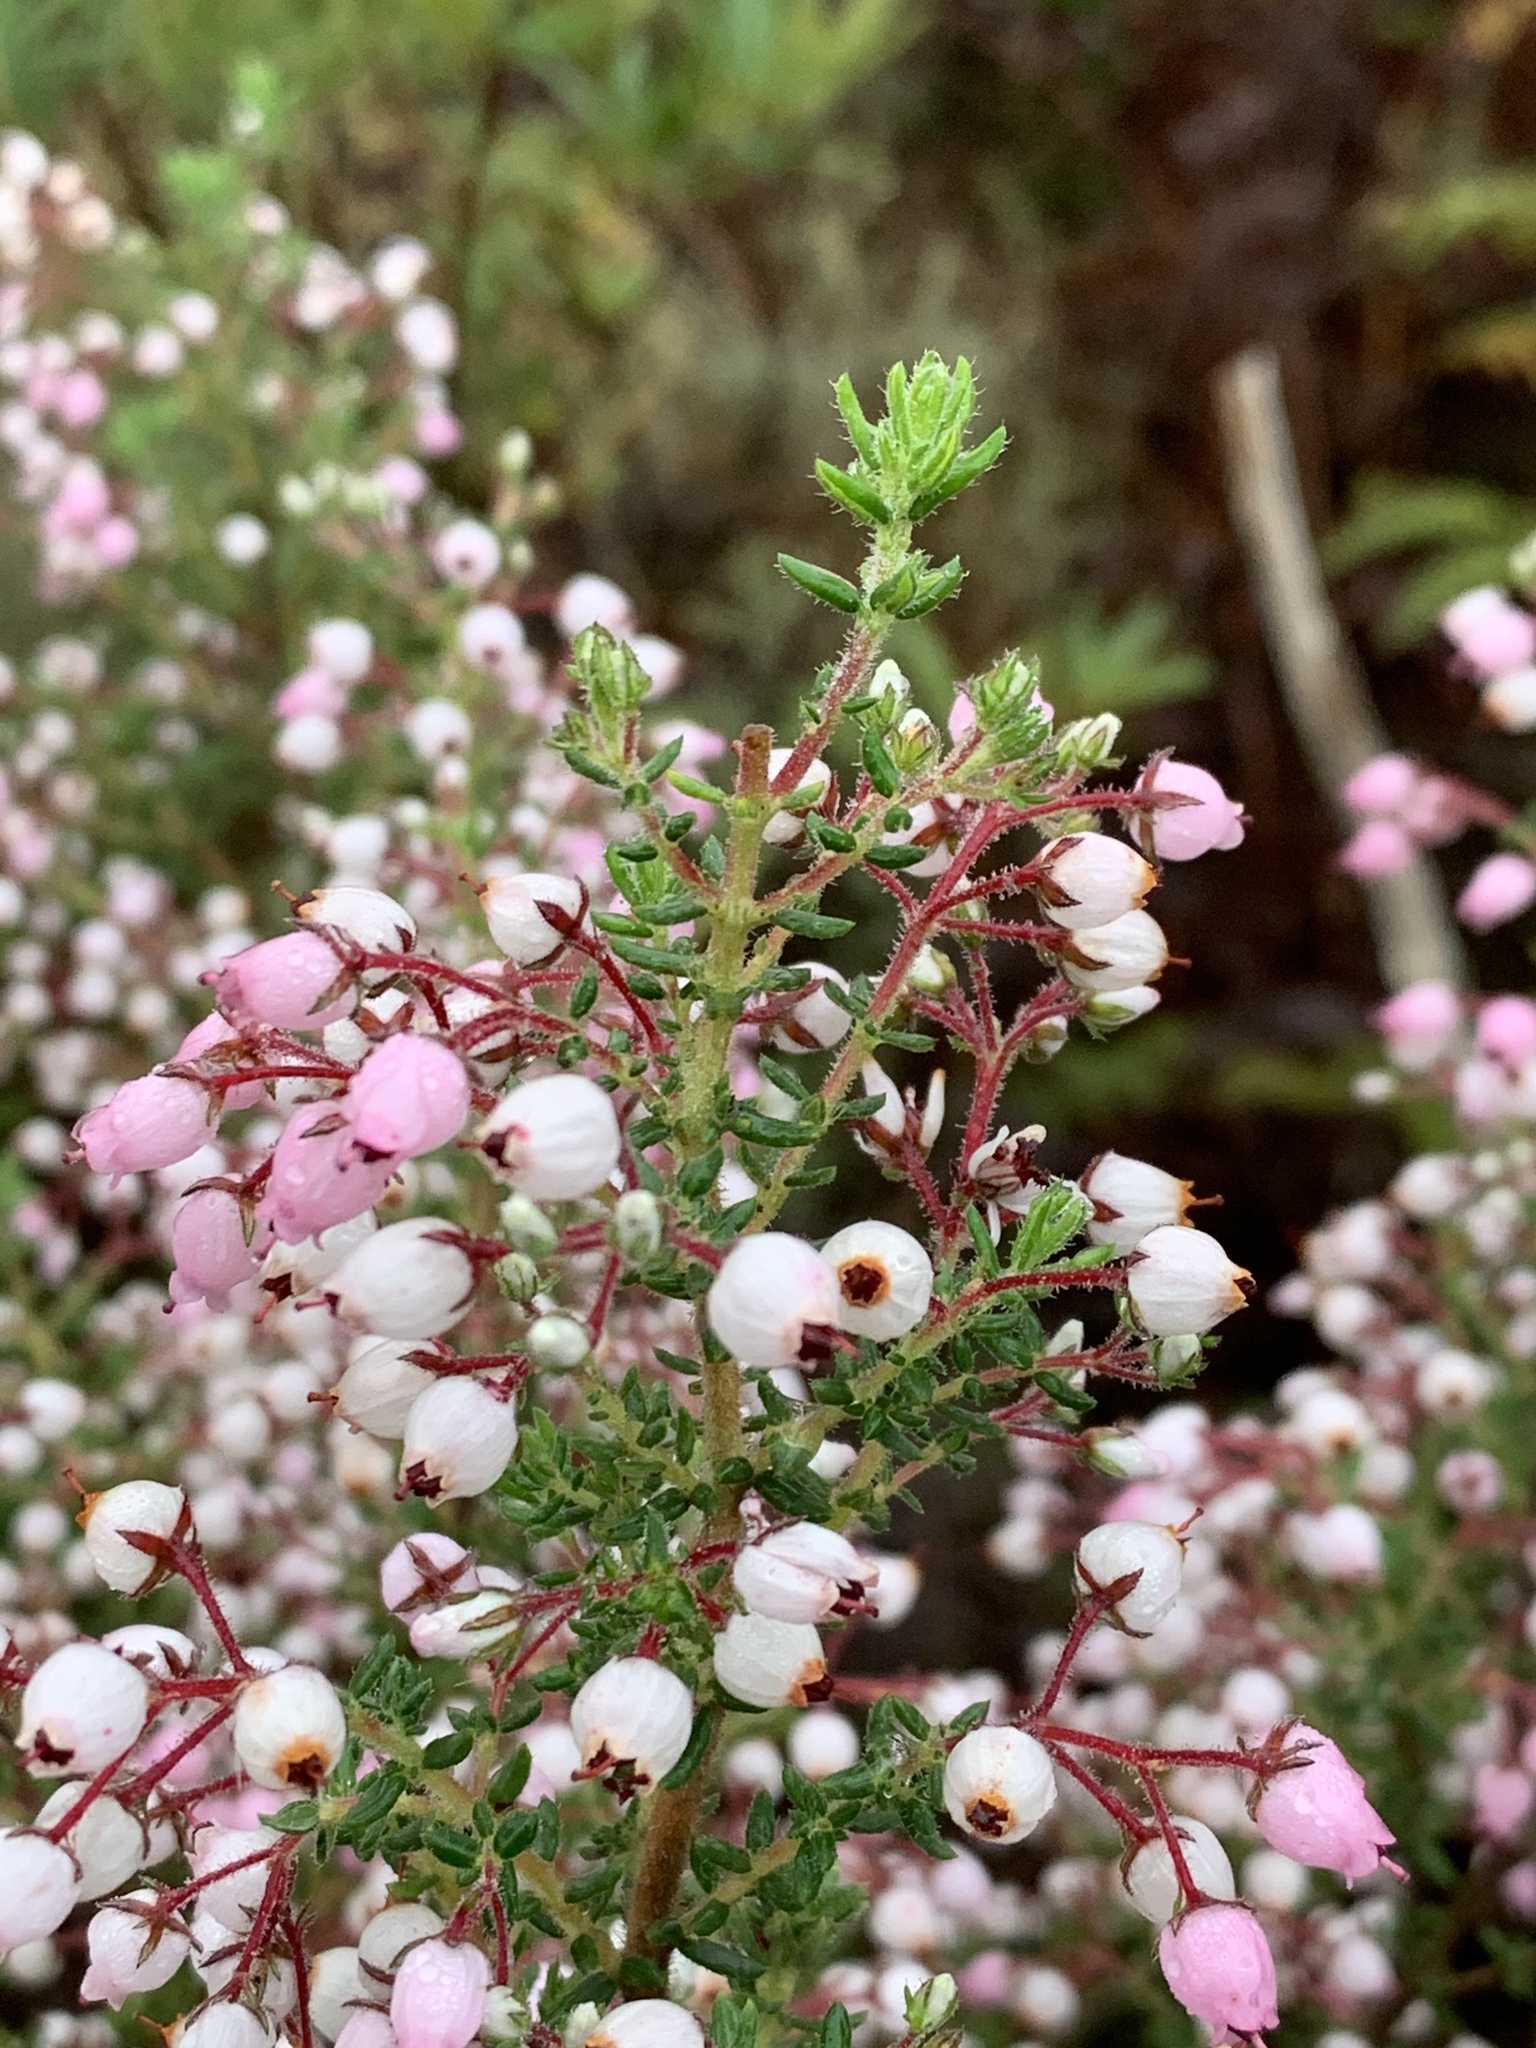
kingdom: Plantae
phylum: Tracheophyta
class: Magnoliopsida
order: Ericales
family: Ericaceae
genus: Erica
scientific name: Erica hirta
